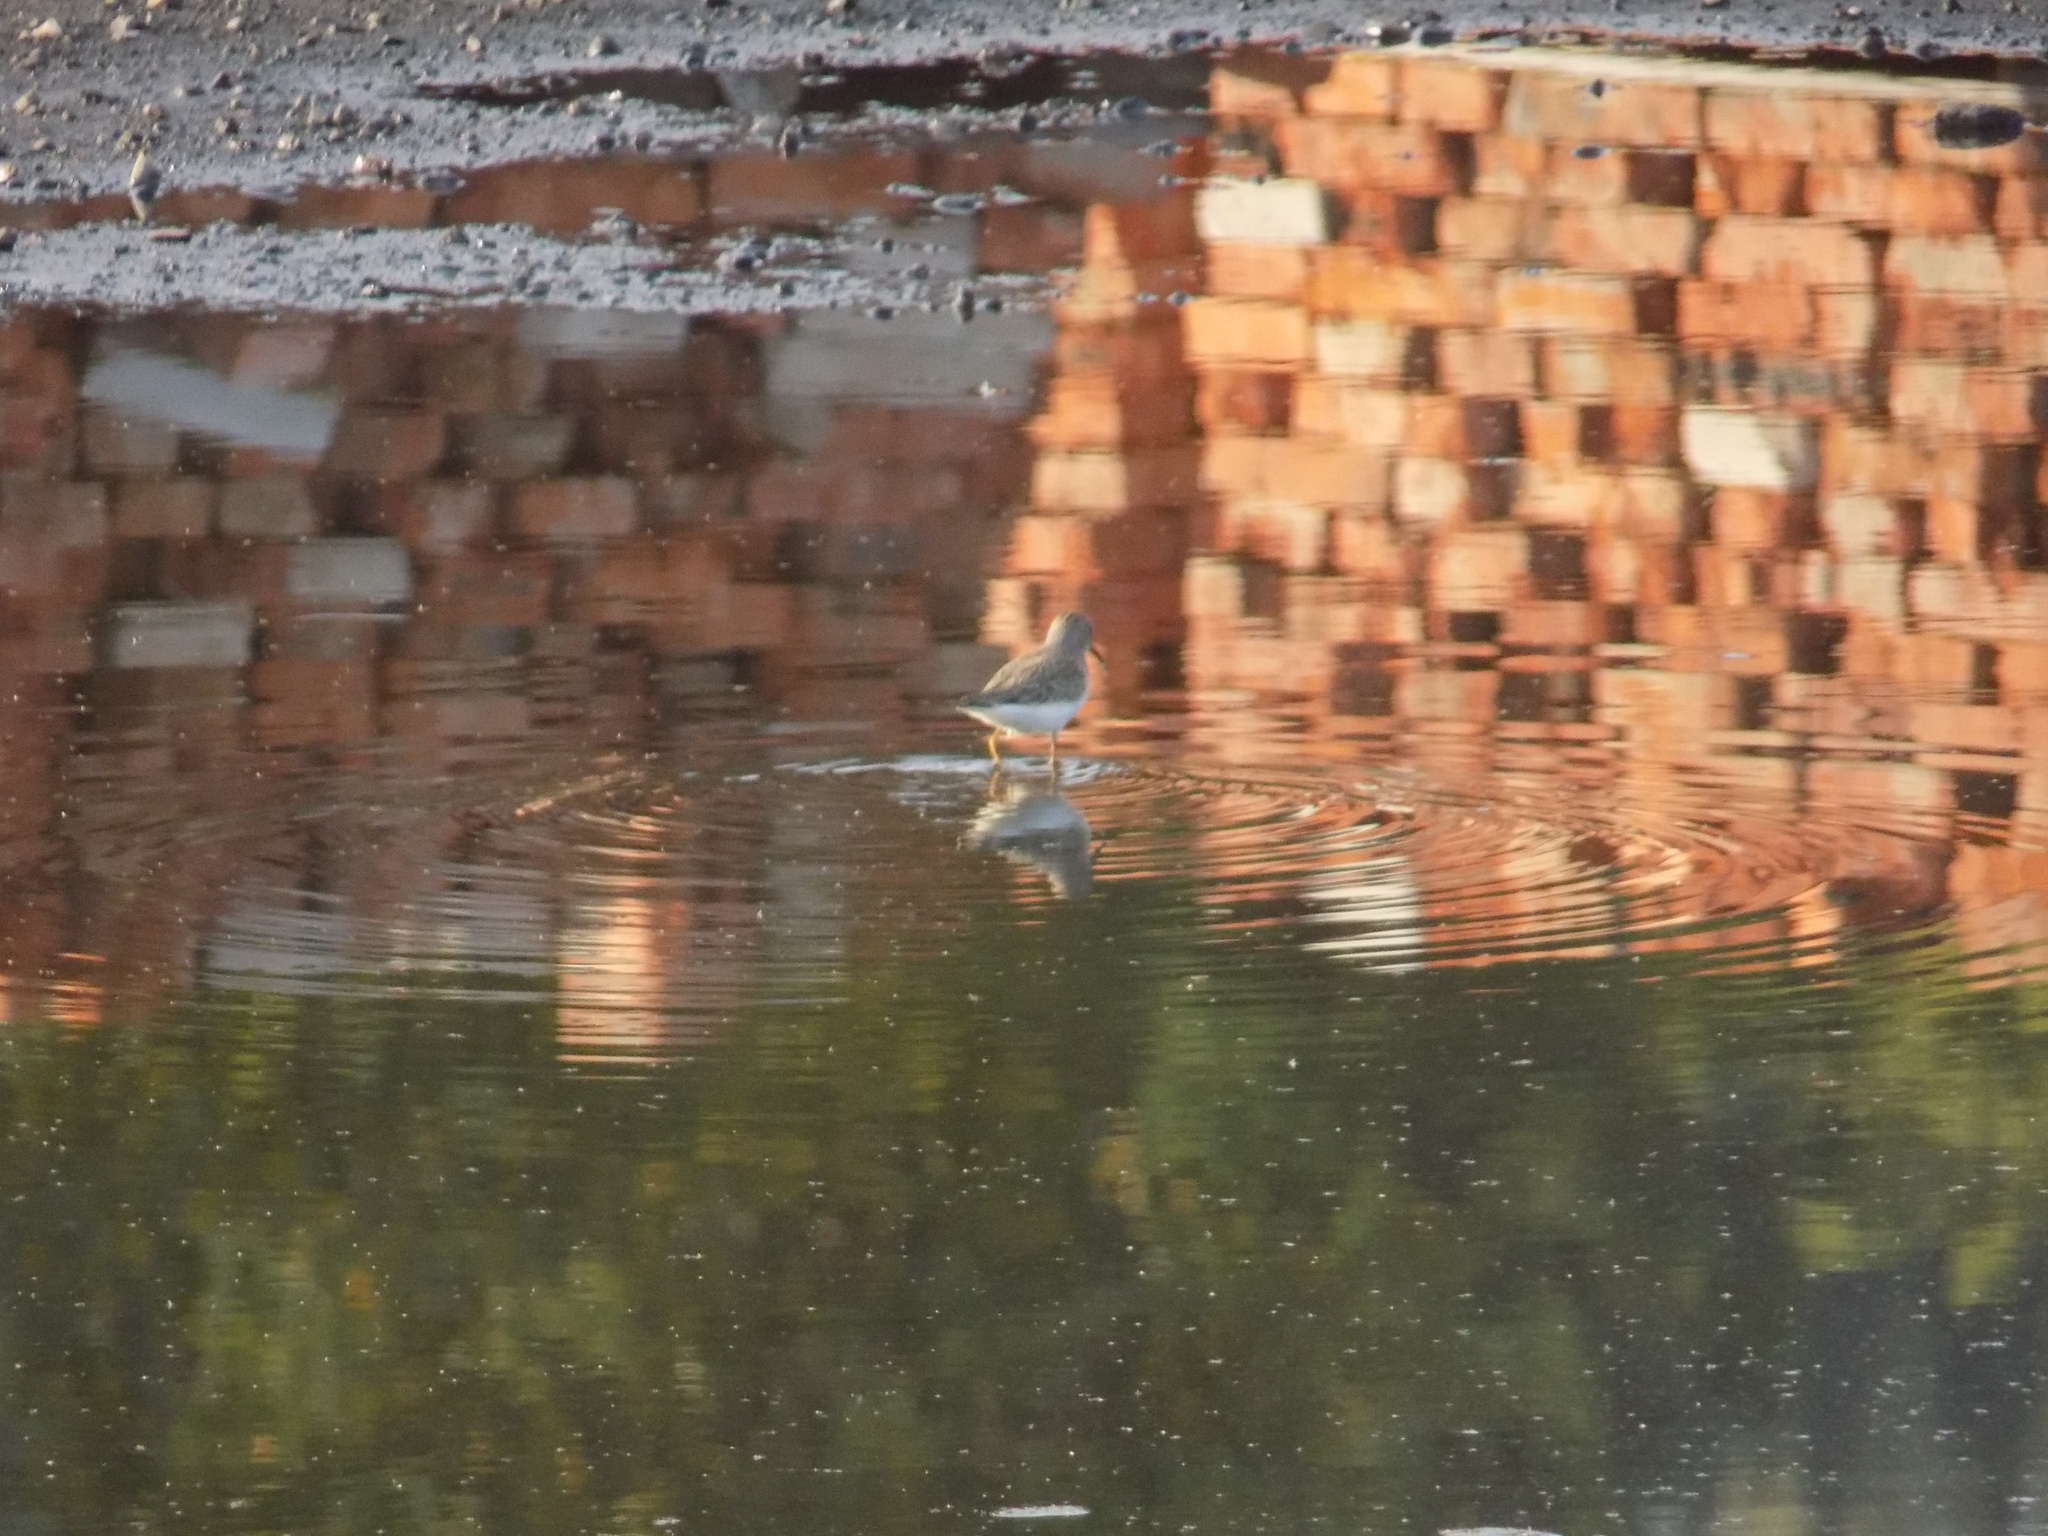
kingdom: Animalia
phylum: Chordata
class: Aves
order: Charadriiformes
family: Scolopacidae
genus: Actitis
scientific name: Actitis hypoleucos
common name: Common sandpiper
